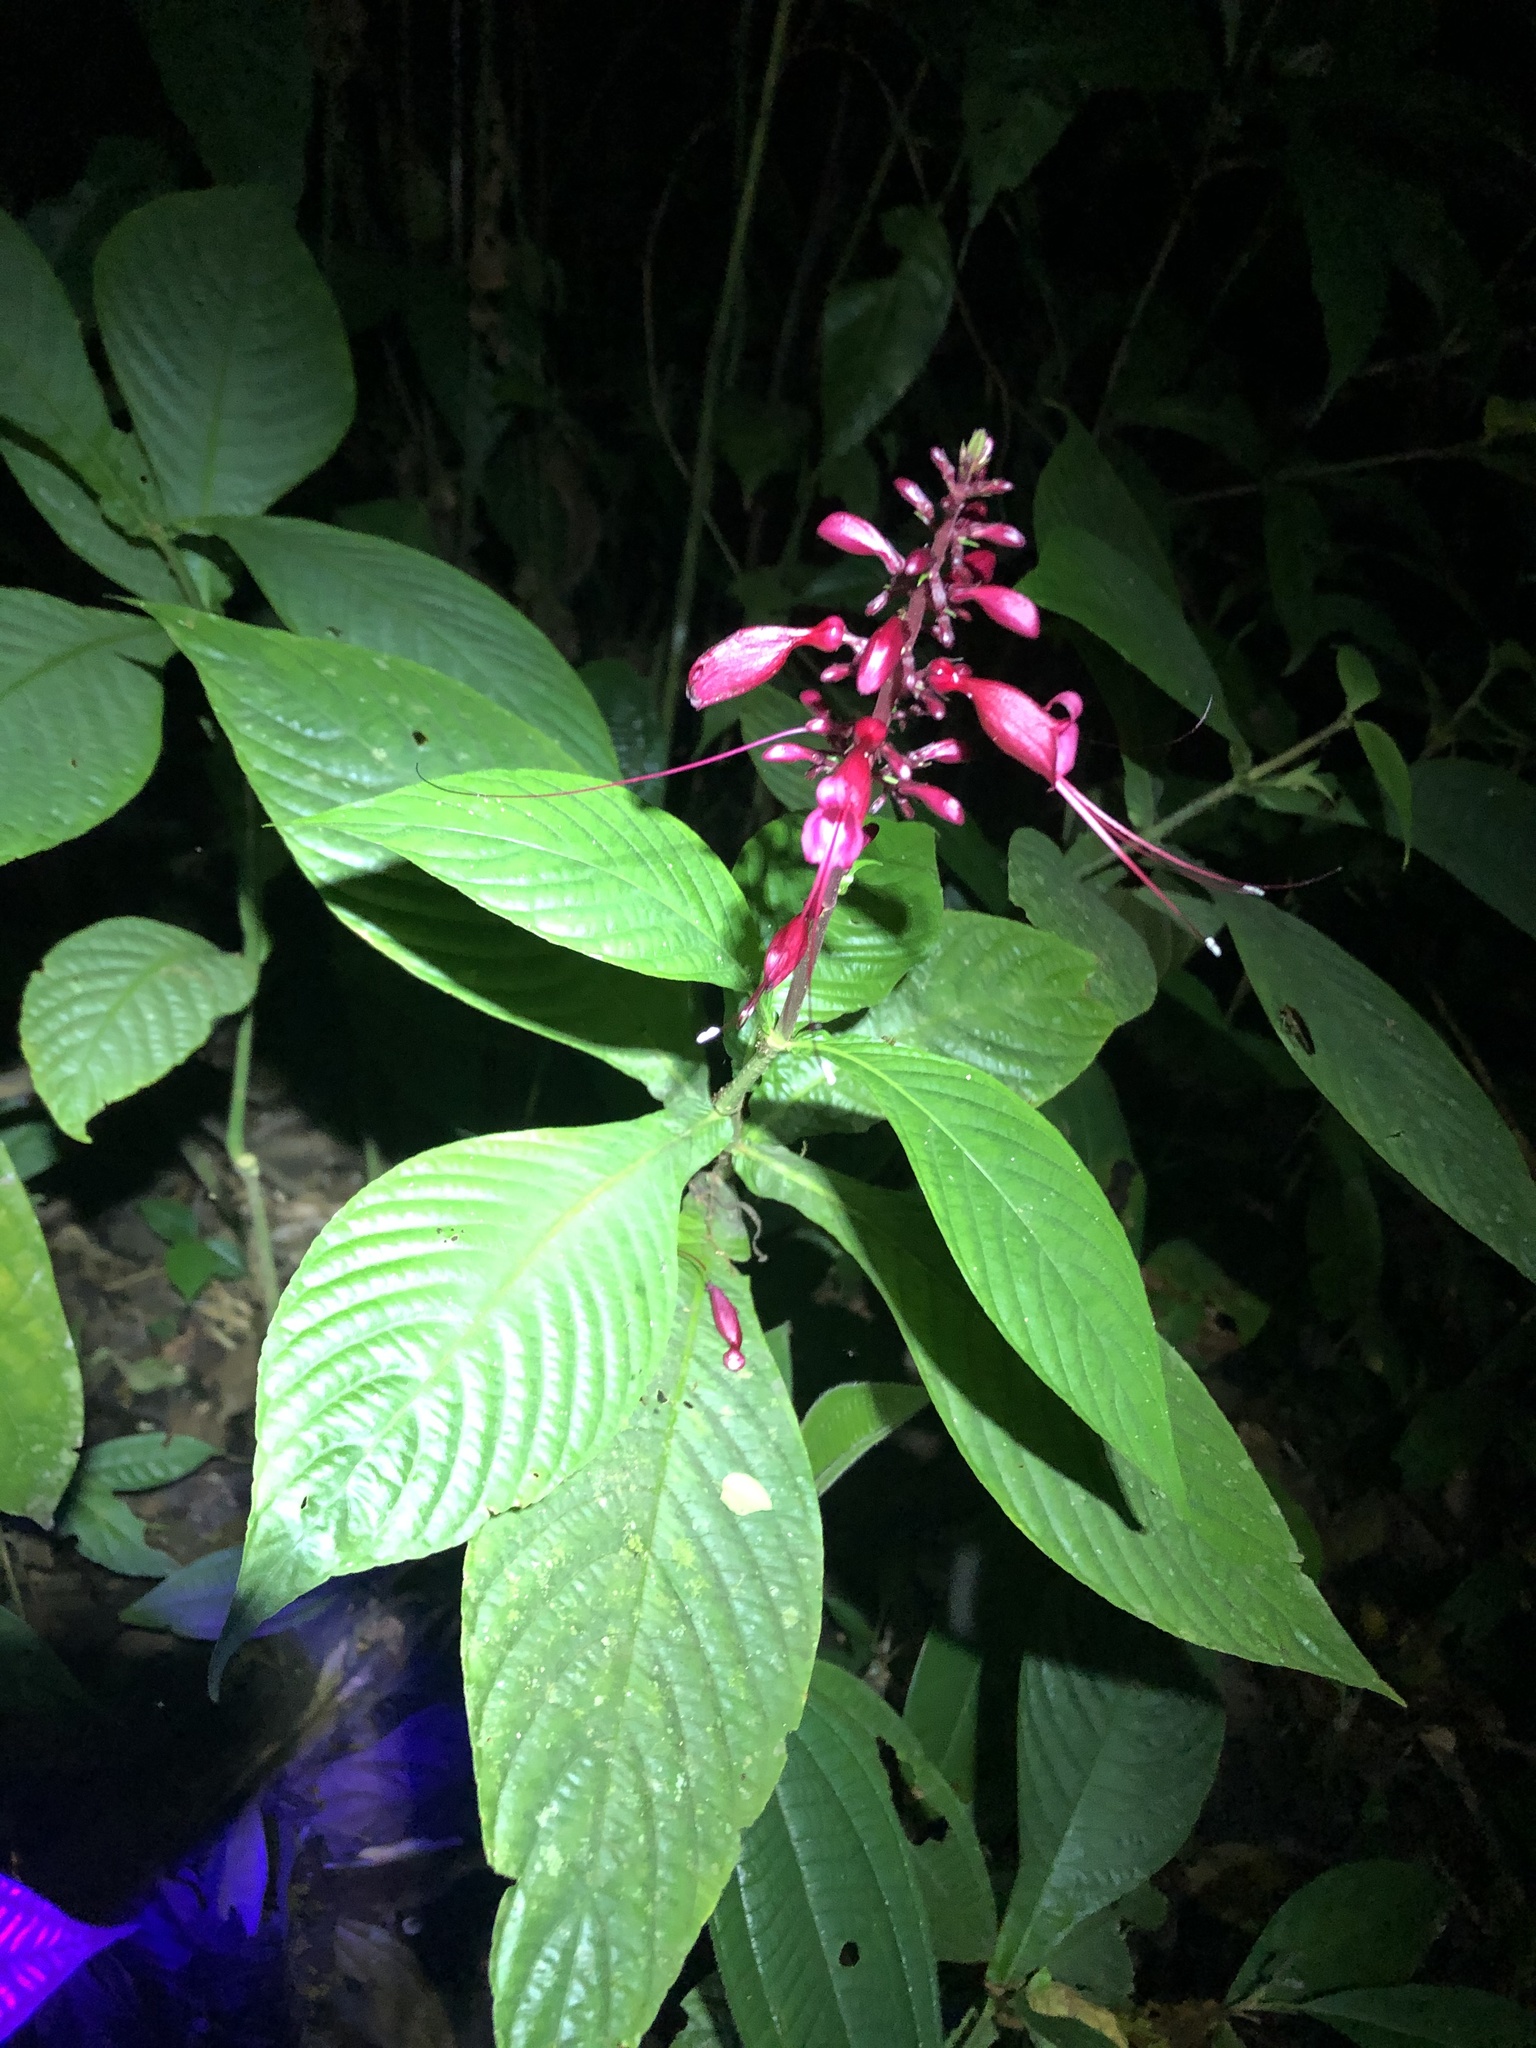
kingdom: Plantae
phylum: Tracheophyta
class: Magnoliopsida
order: Lamiales
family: Acanthaceae
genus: Stenostephanus
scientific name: Stenostephanus longistaminus
